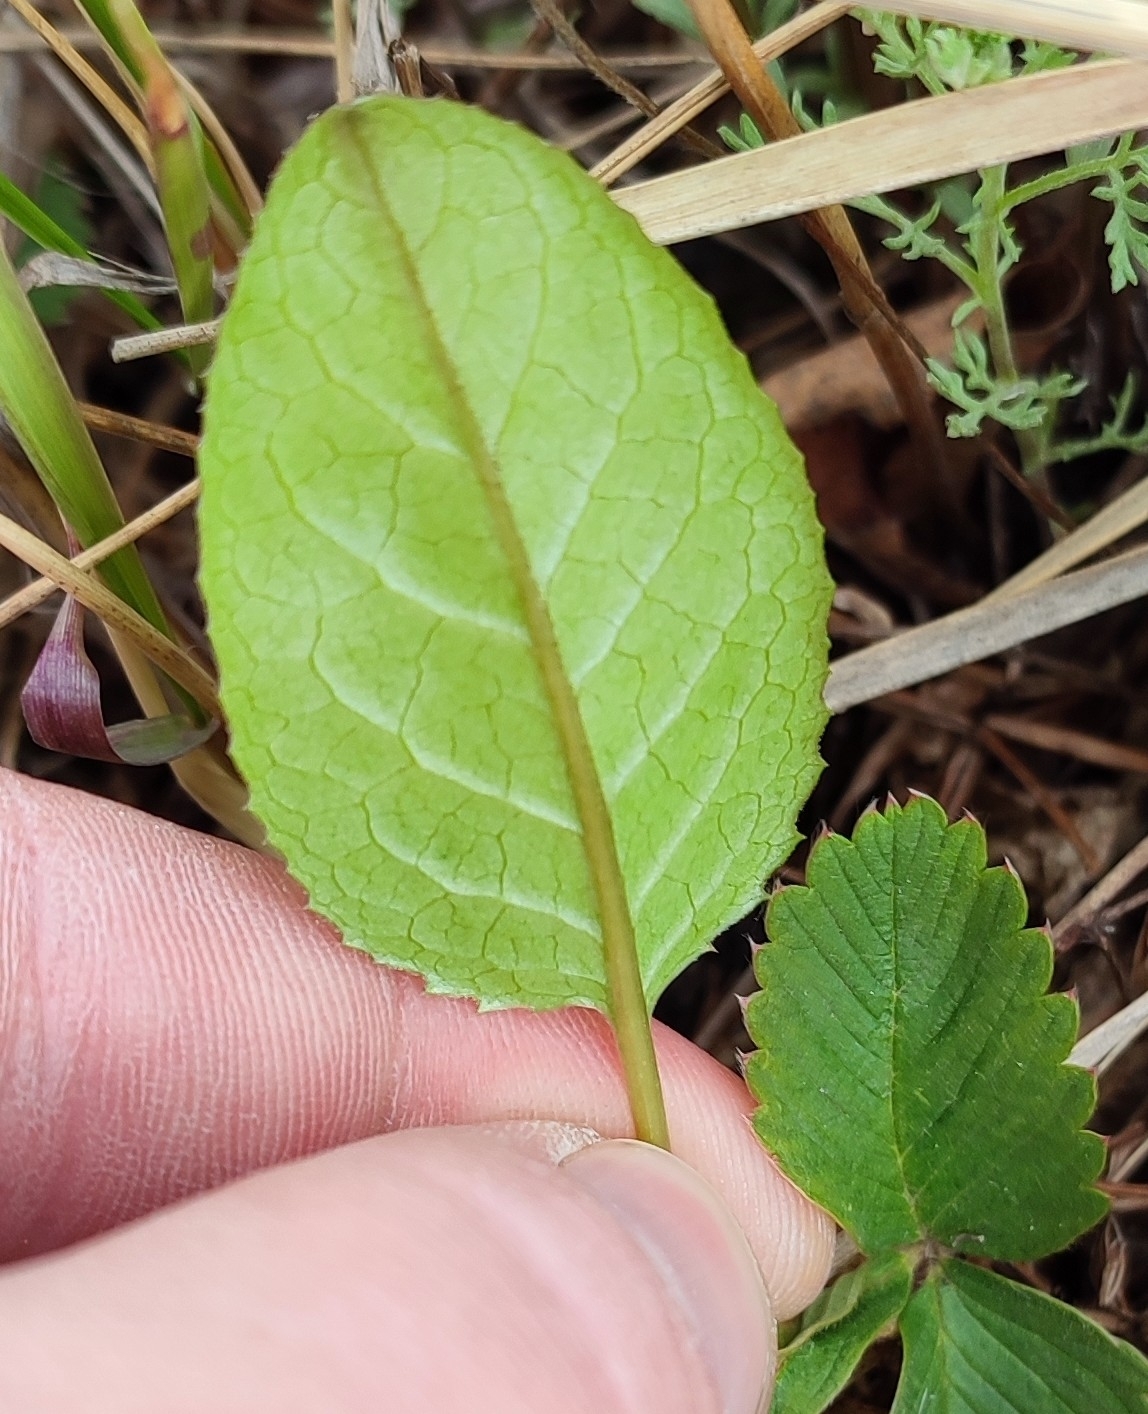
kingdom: Plantae
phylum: Tracheophyta
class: Magnoliopsida
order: Asterales
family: Asteraceae
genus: Solidago
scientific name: Solidago virgaurea
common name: Goldenrod
